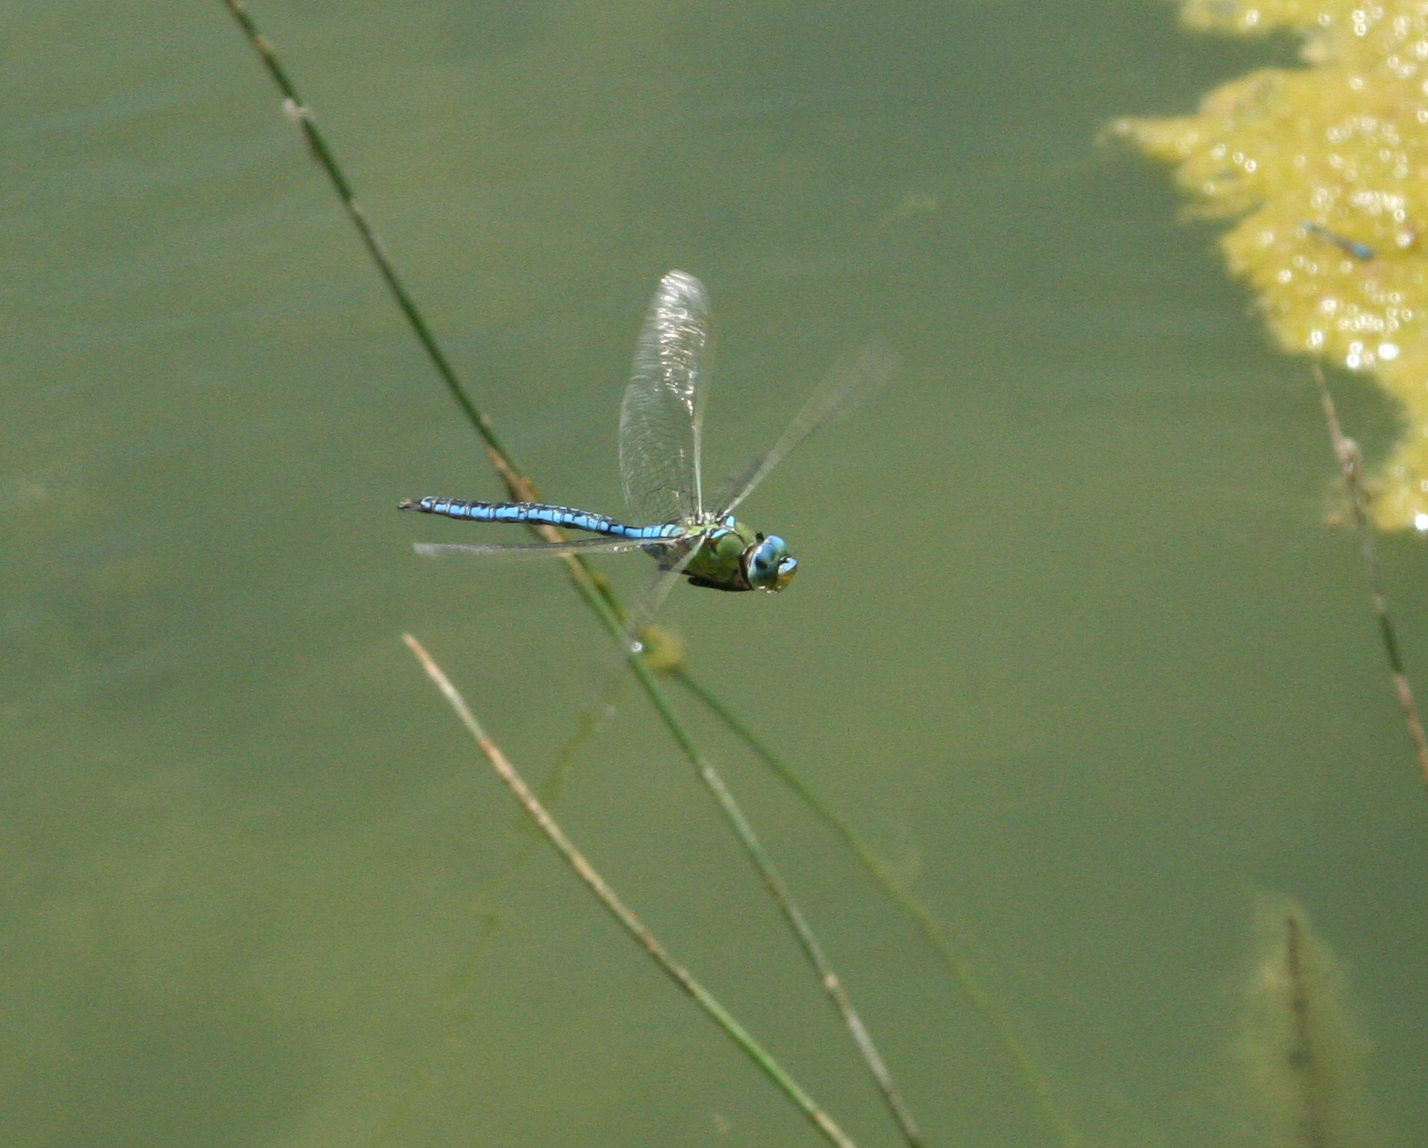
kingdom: Animalia
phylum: Arthropoda
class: Insecta
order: Odonata
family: Aeshnidae
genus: Anax
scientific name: Anax imperator
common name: Emperor dragonfly
